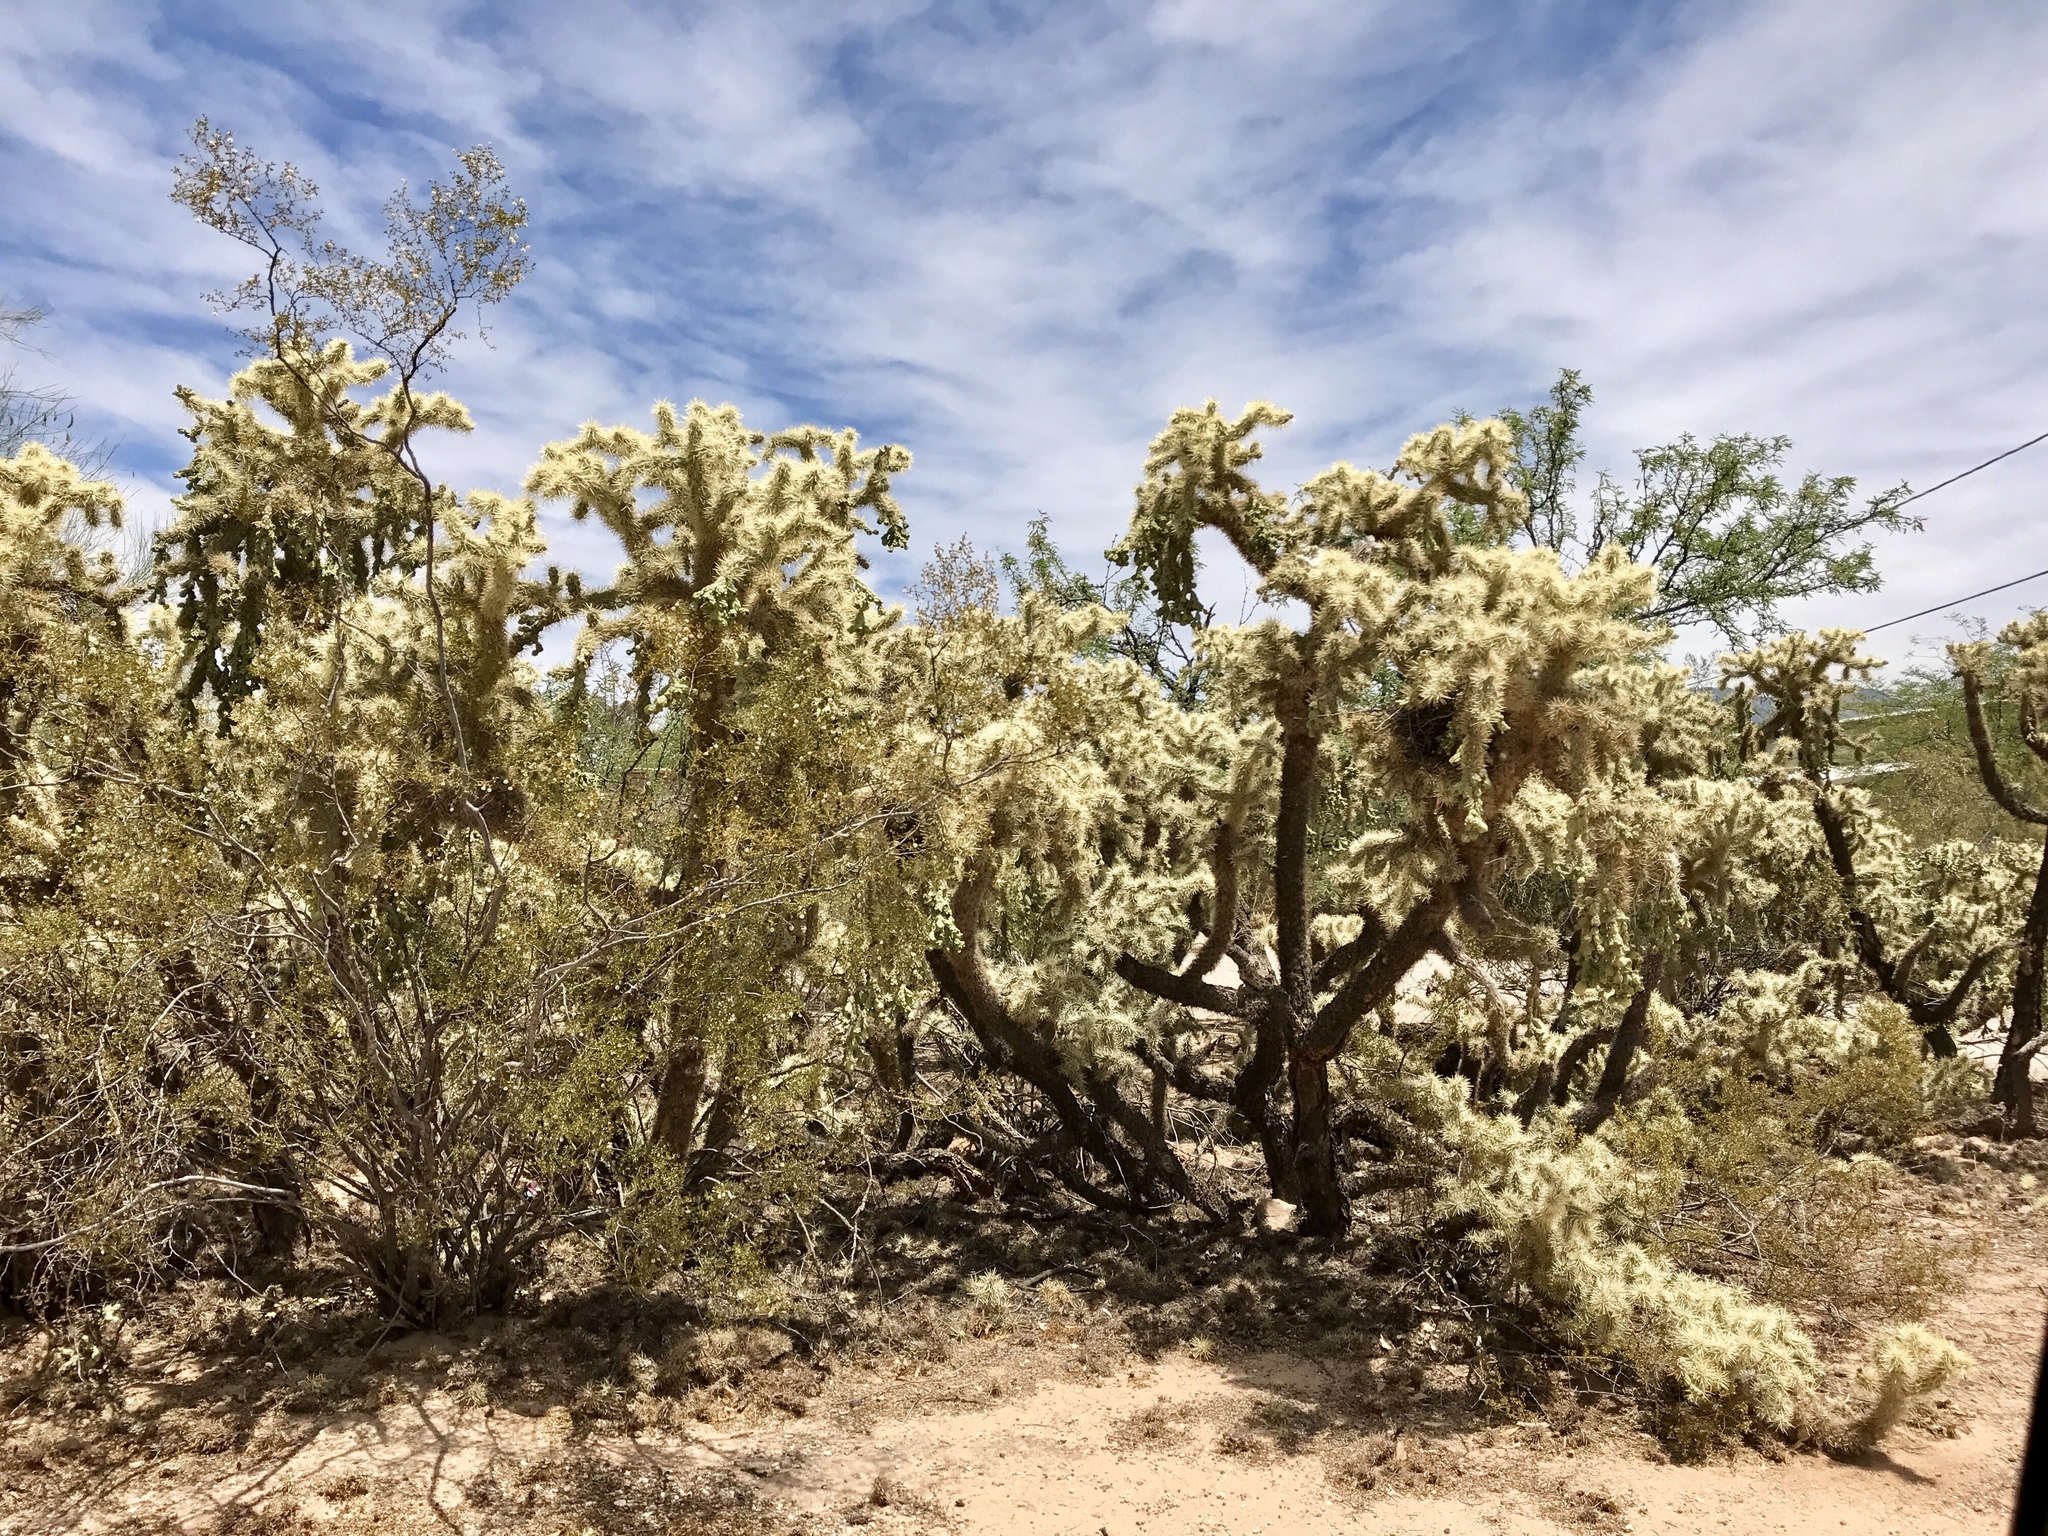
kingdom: Plantae
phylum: Tracheophyta
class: Magnoliopsida
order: Caryophyllales
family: Cactaceae
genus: Cylindropuntia
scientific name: Cylindropuntia fulgida
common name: Jumping cholla
